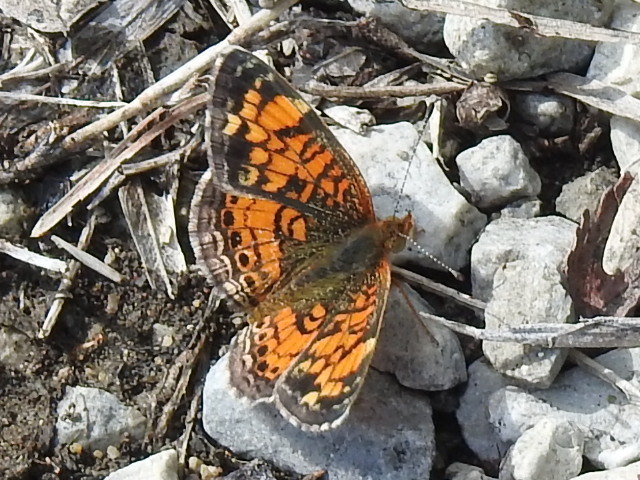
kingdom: Animalia
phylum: Arthropoda
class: Insecta
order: Lepidoptera
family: Nymphalidae
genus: Phyciodes
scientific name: Phyciodes tharos
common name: Pearl crescent
